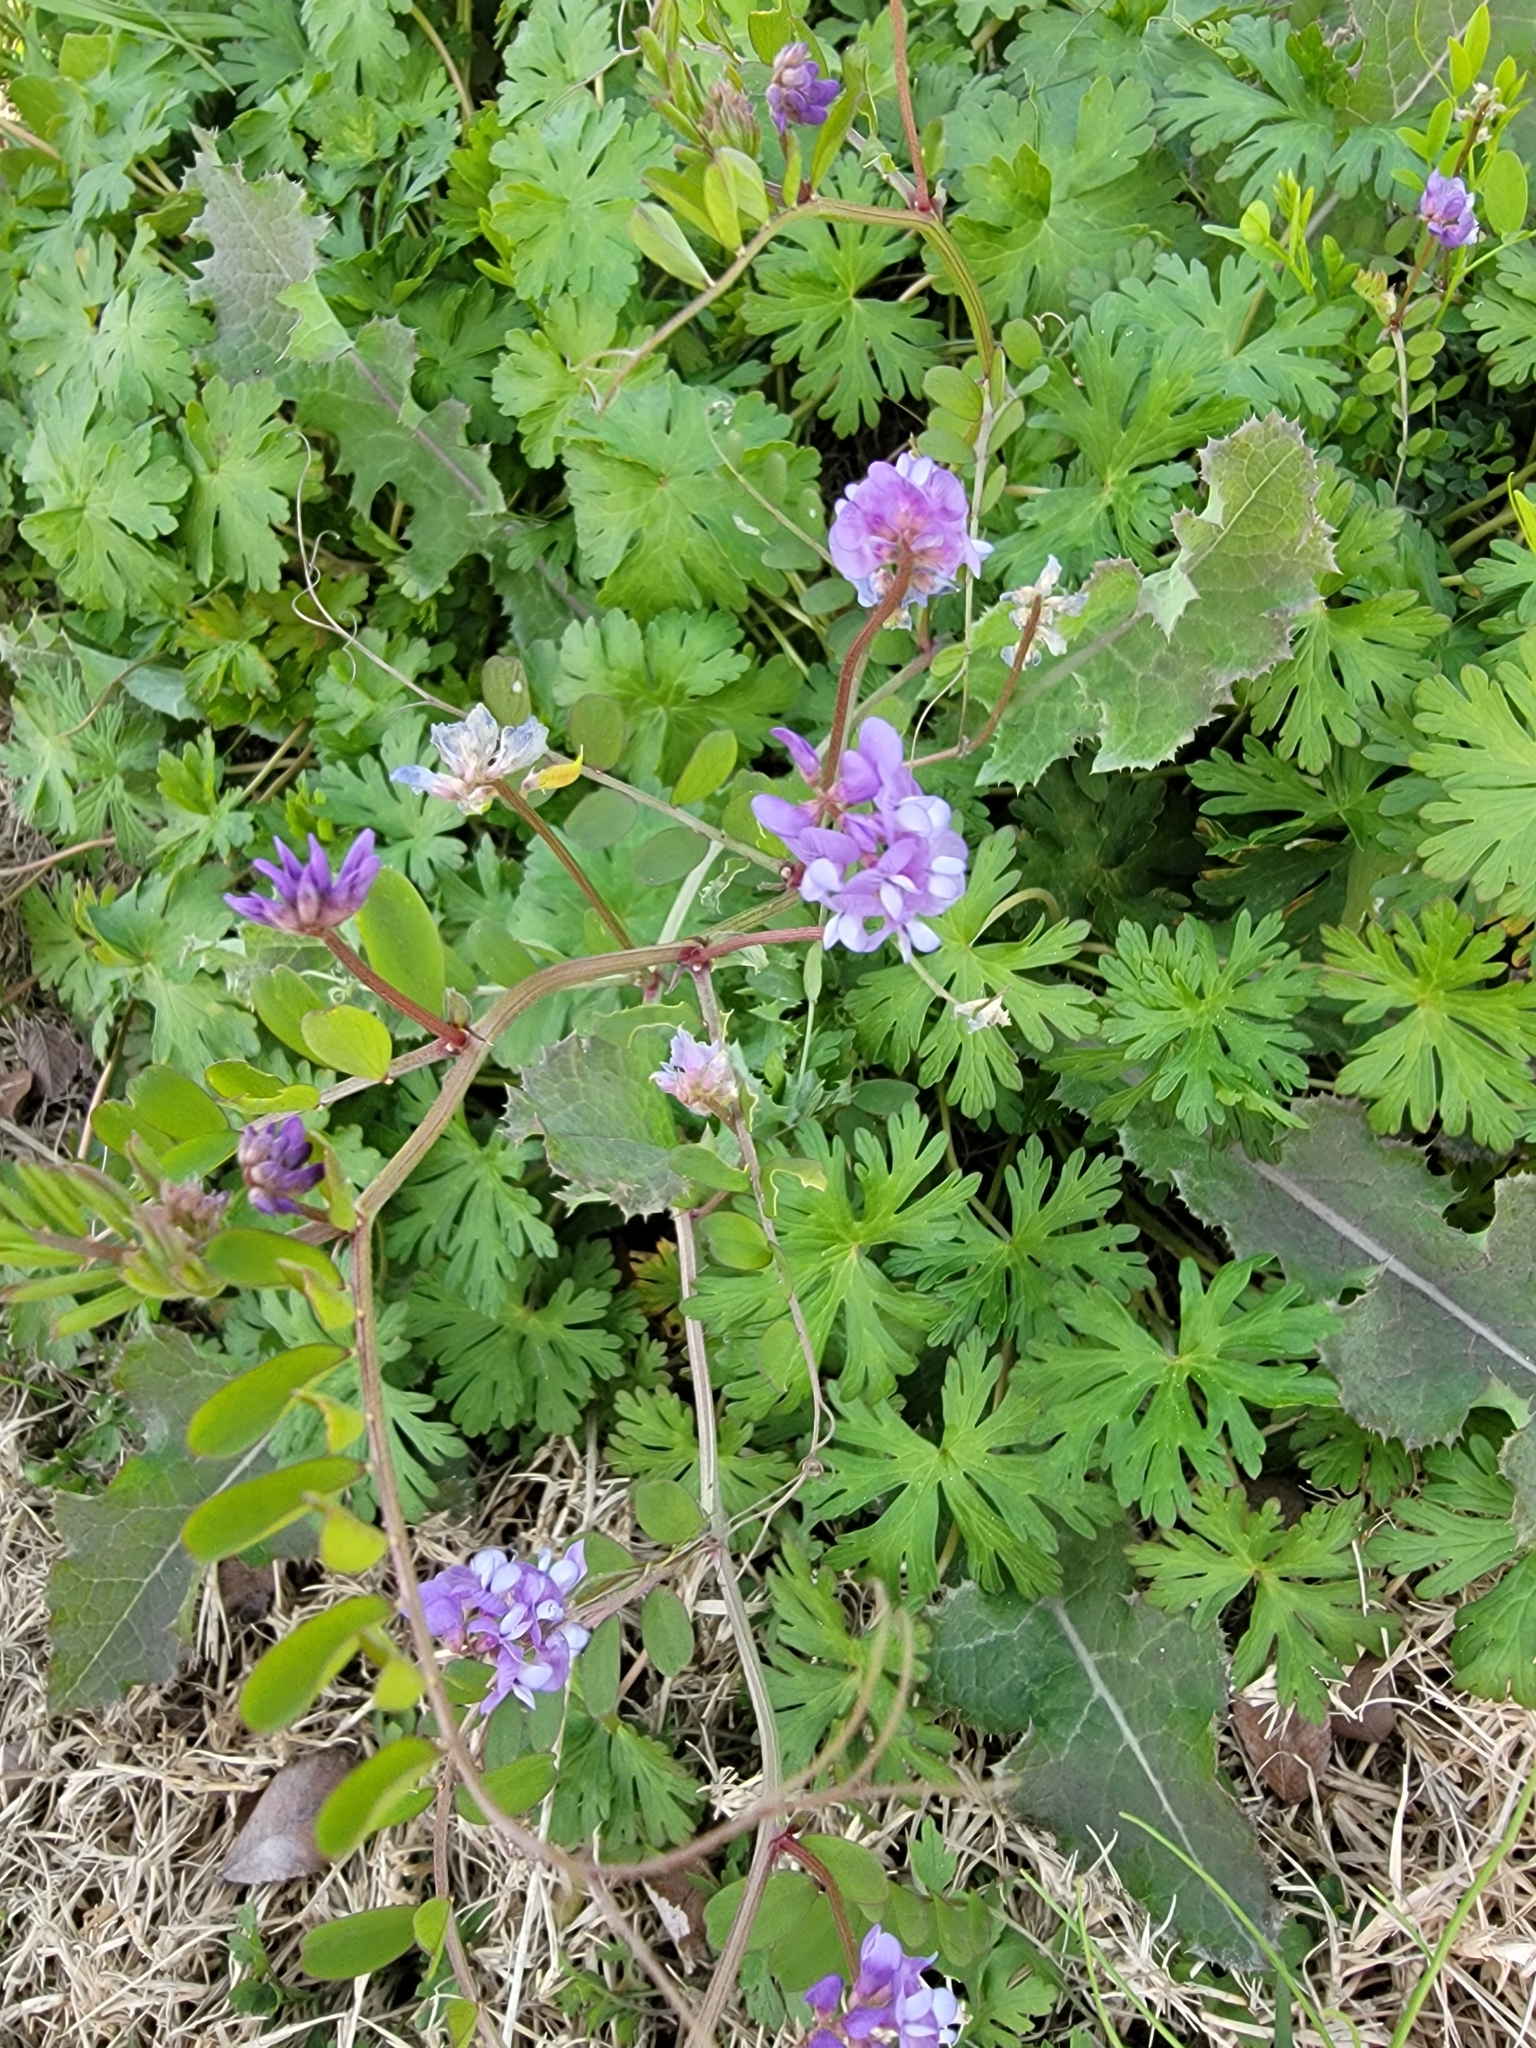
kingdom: Plantae
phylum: Tracheophyta
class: Magnoliopsida
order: Fabales
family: Fabaceae
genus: Vicia
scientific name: Vicia ludoviciana
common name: Louisiana vetch
